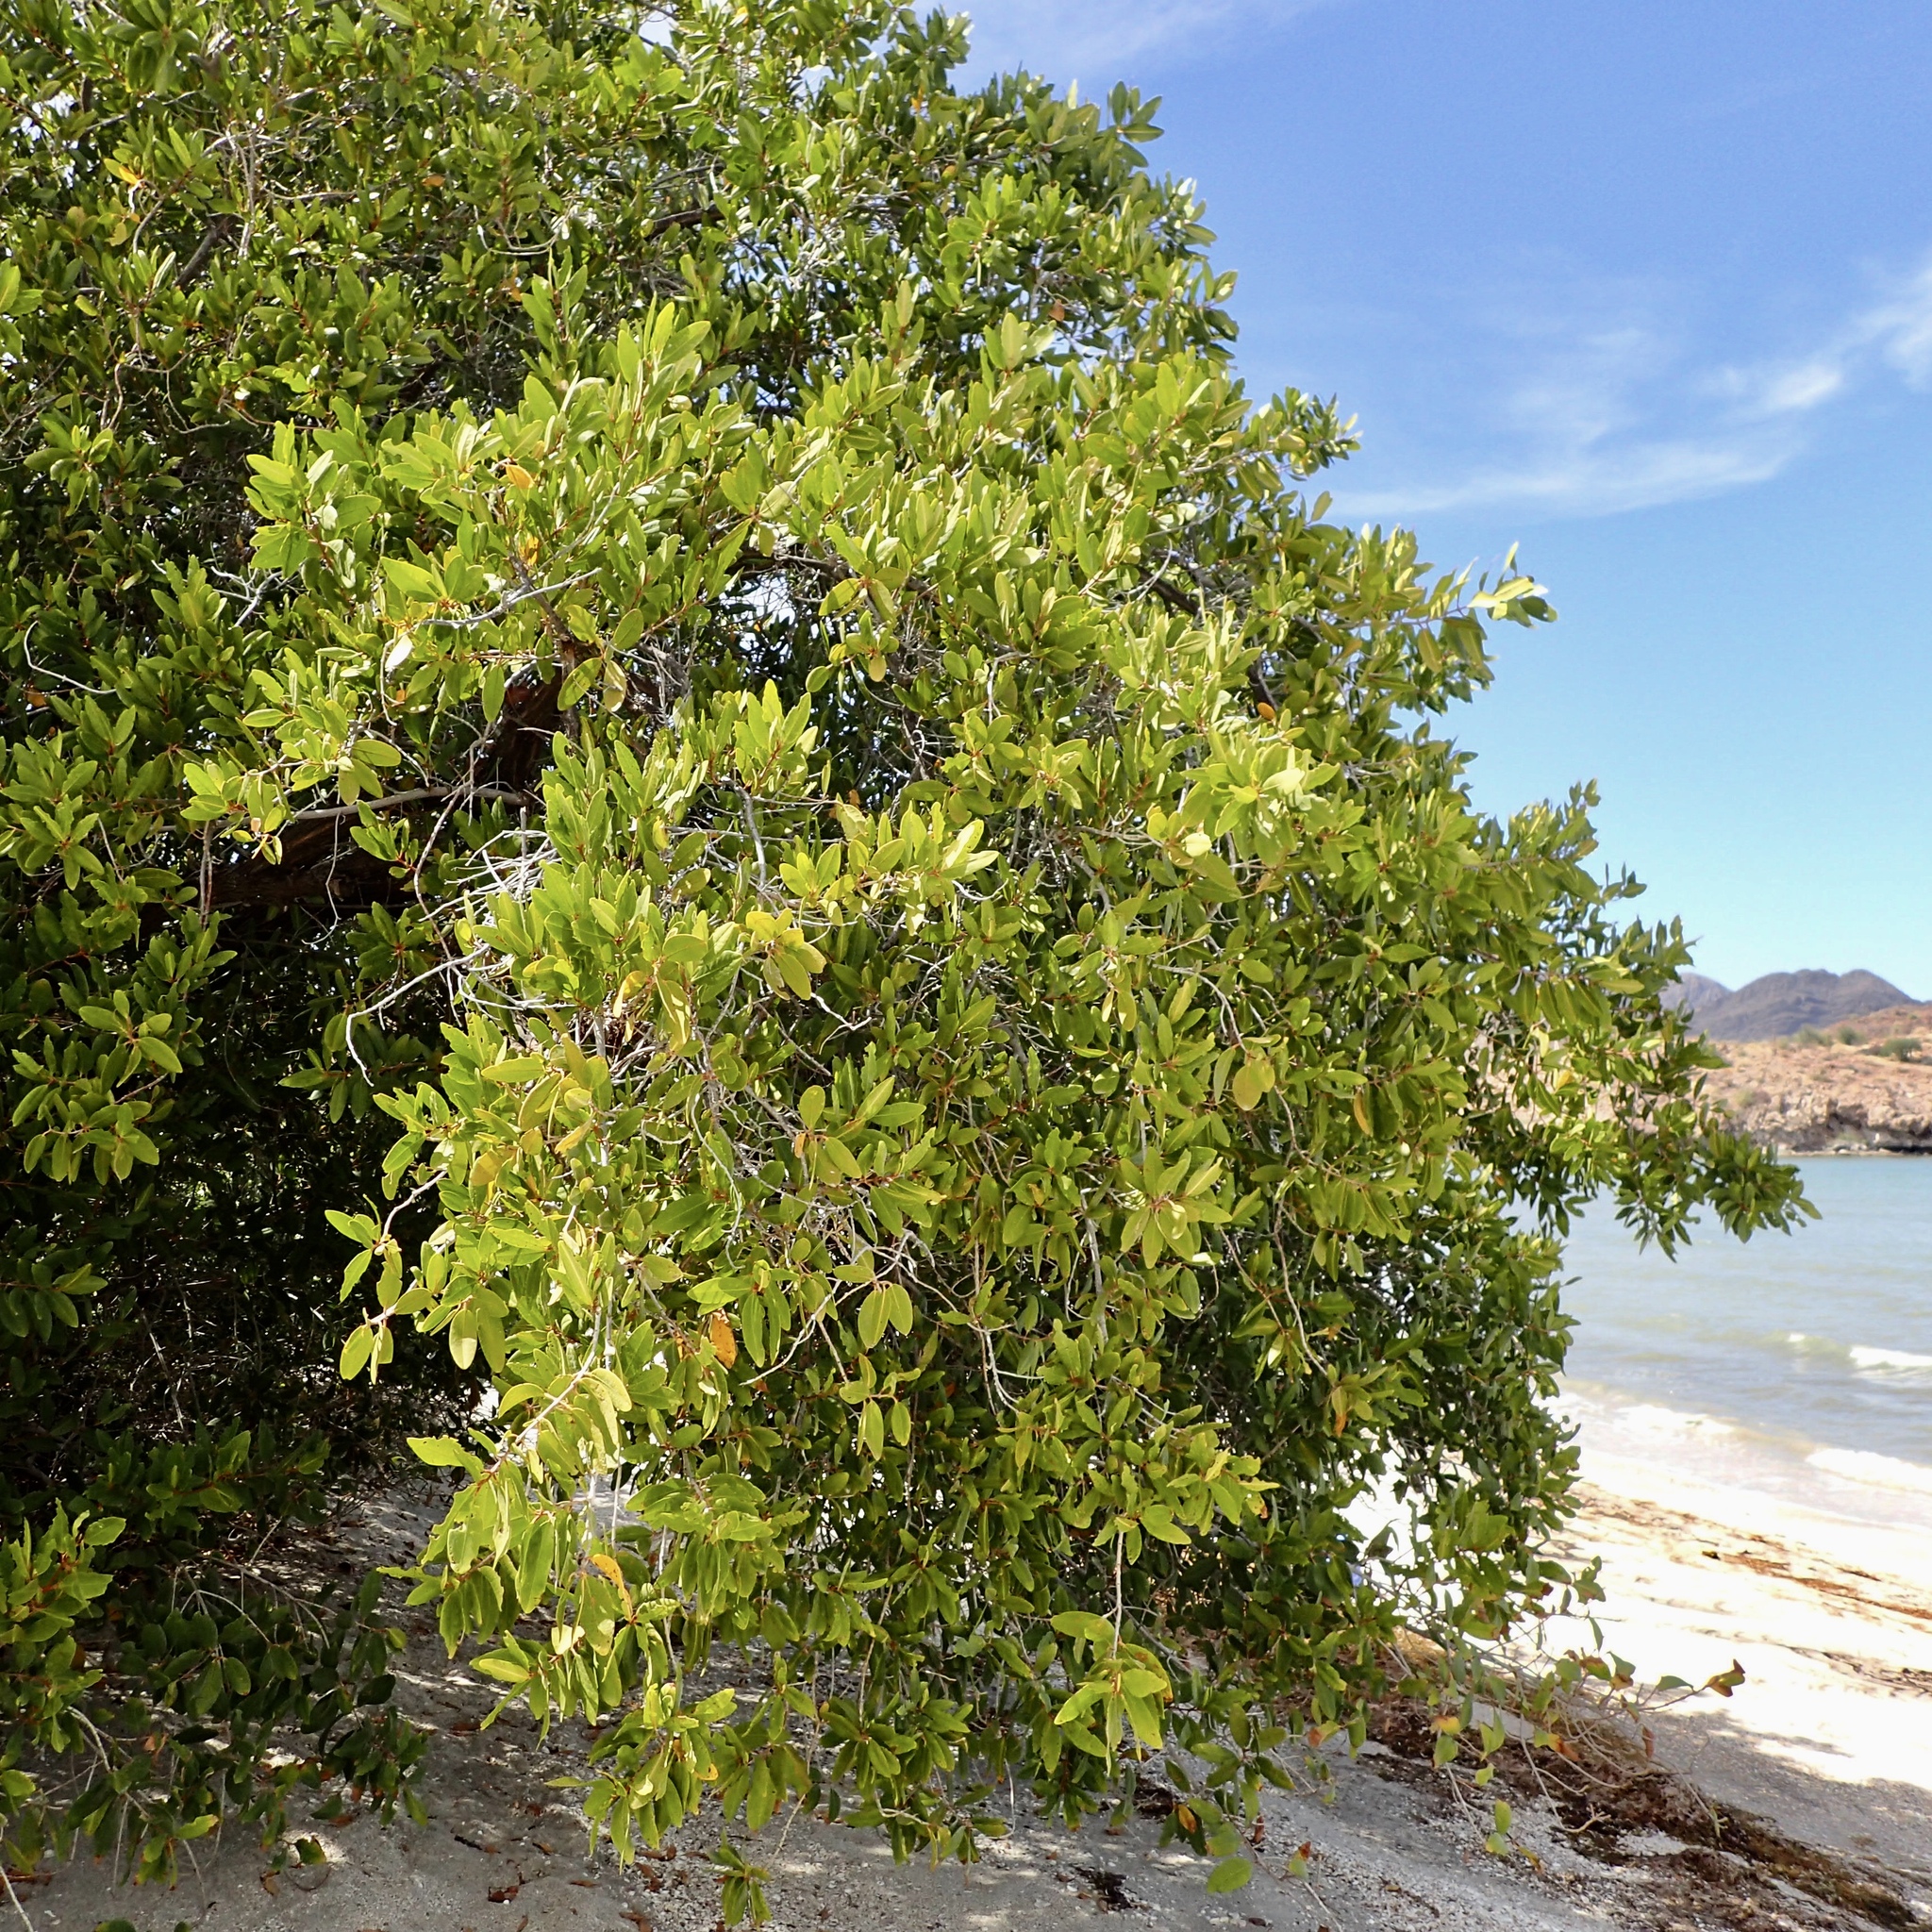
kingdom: Plantae
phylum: Tracheophyta
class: Magnoliopsida
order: Myrtales
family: Combretaceae
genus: Laguncularia
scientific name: Laguncularia racemosa
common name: White mangrove
